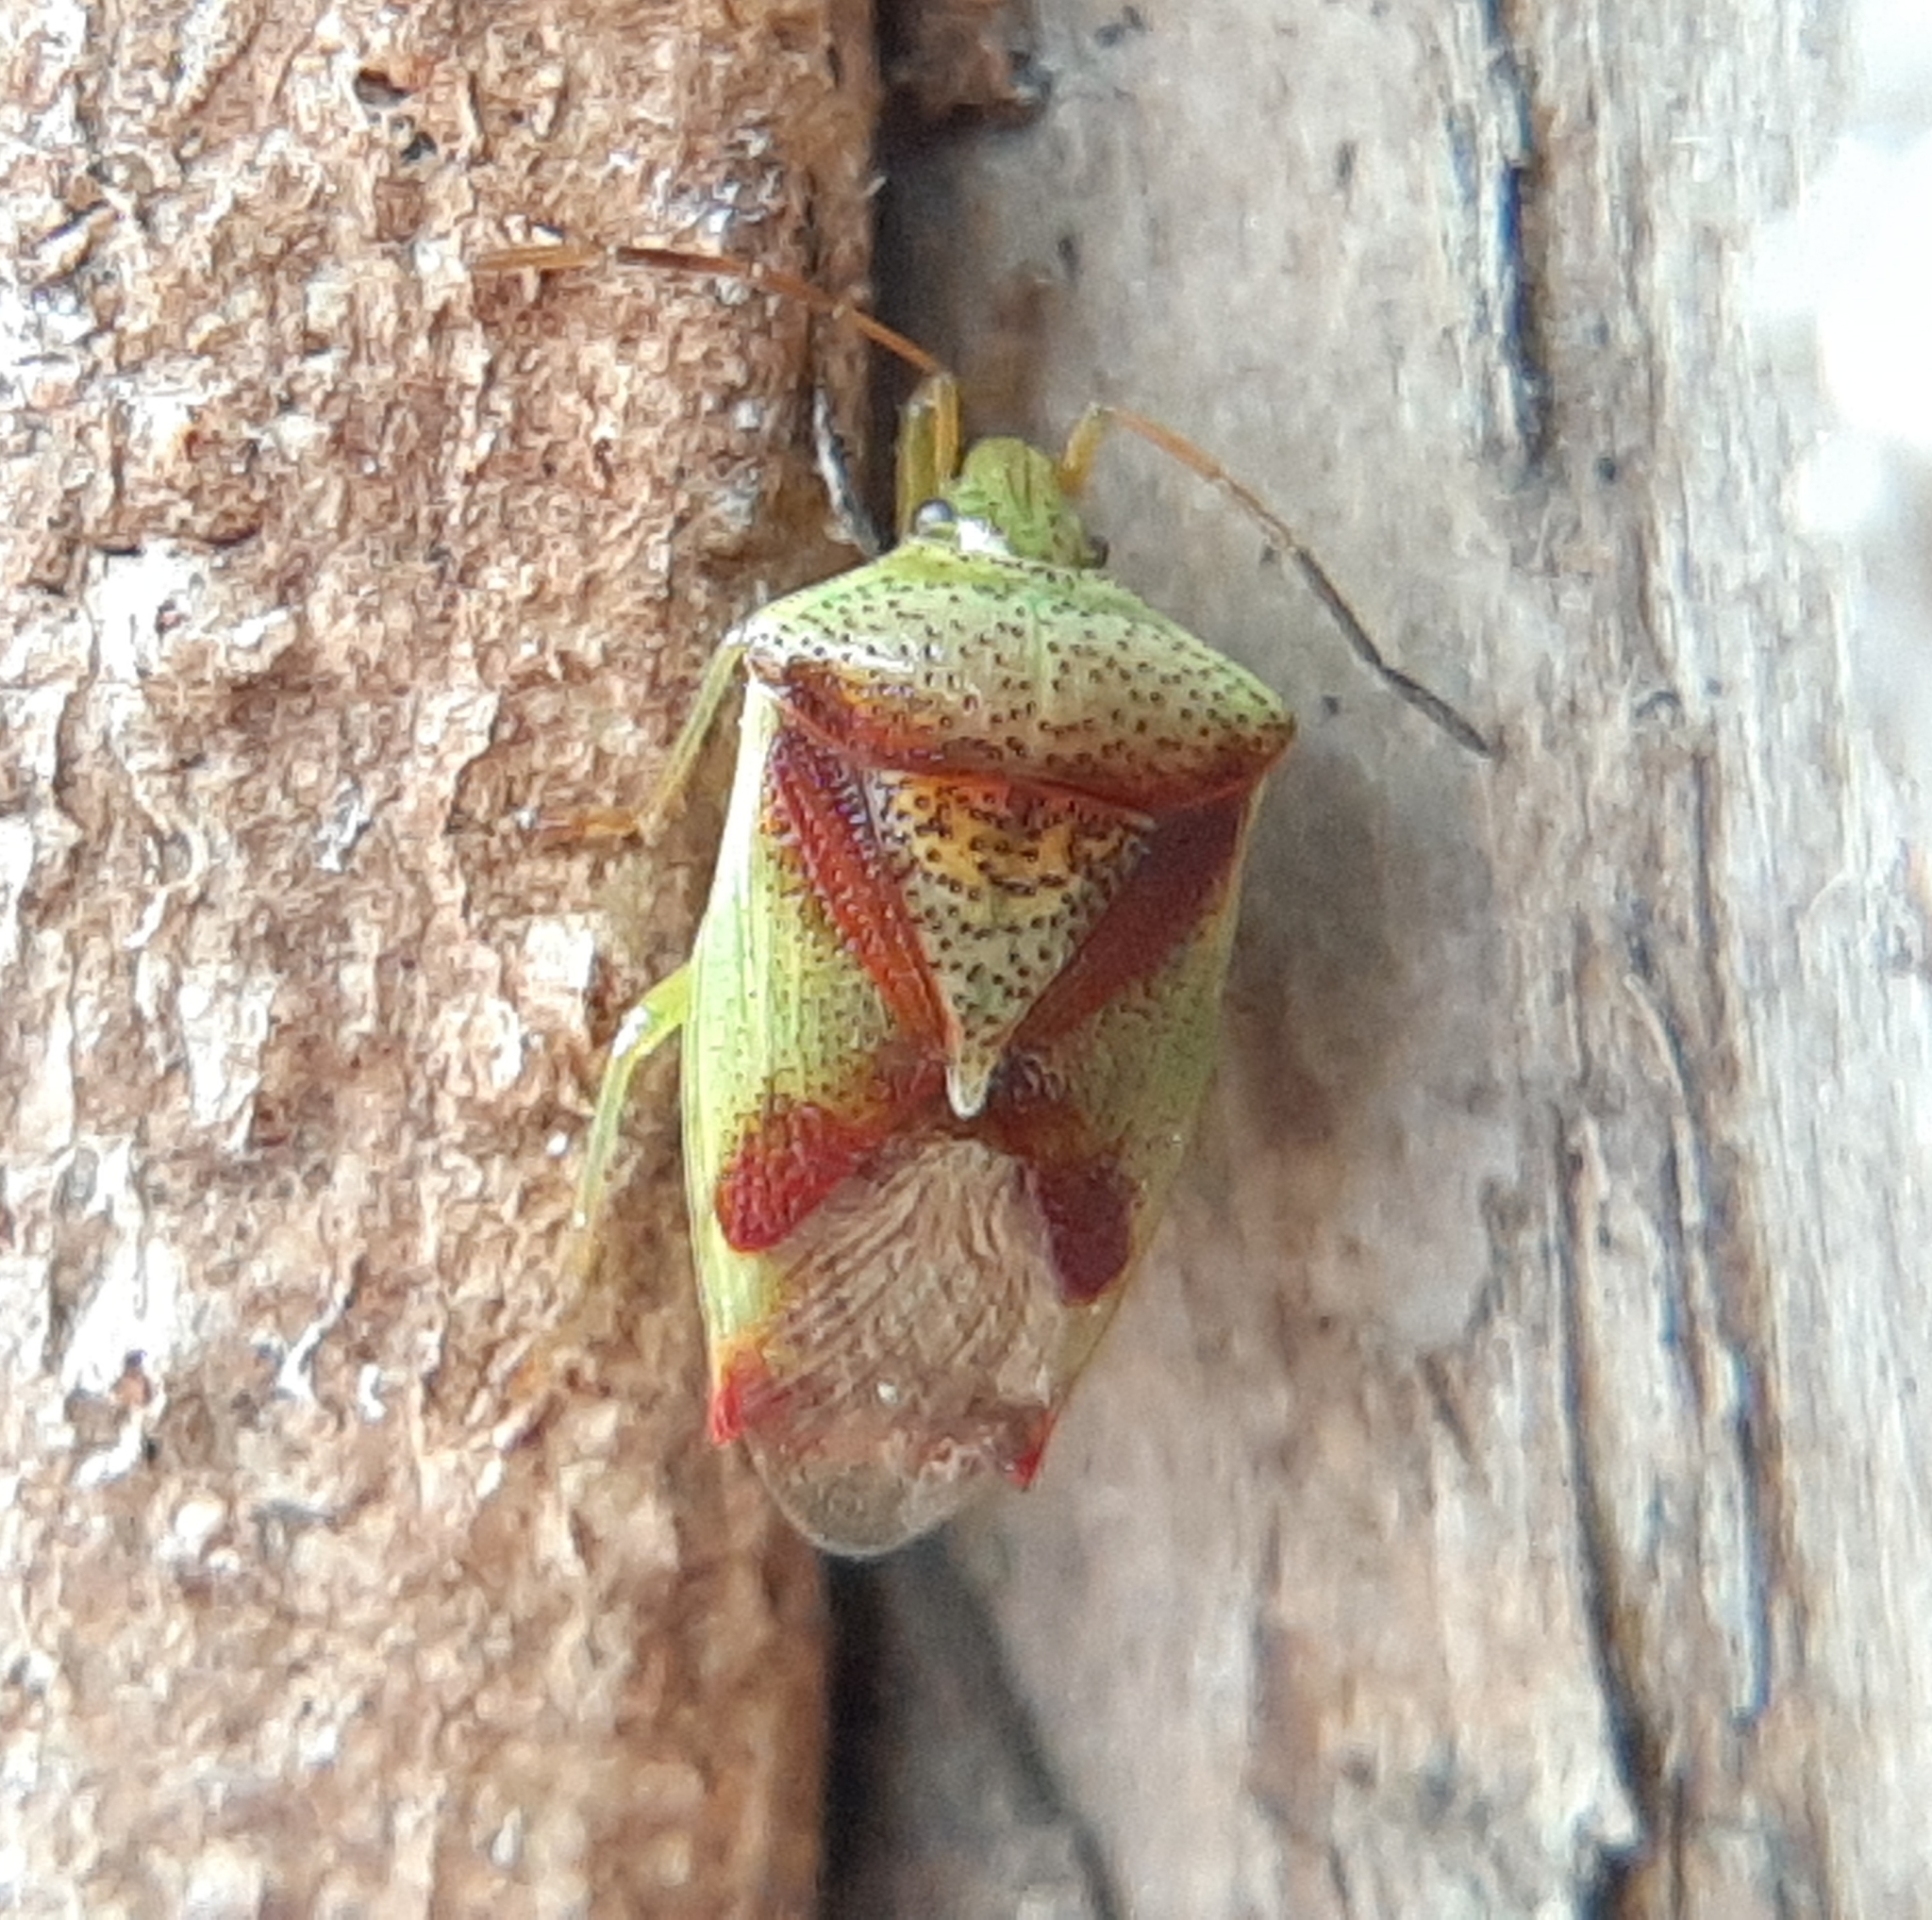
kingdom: Animalia
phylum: Arthropoda
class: Insecta
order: Hemiptera
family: Acanthosomatidae
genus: Elasmostethus
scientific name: Elasmostethus cruciatus
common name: Red-cross shield bug
